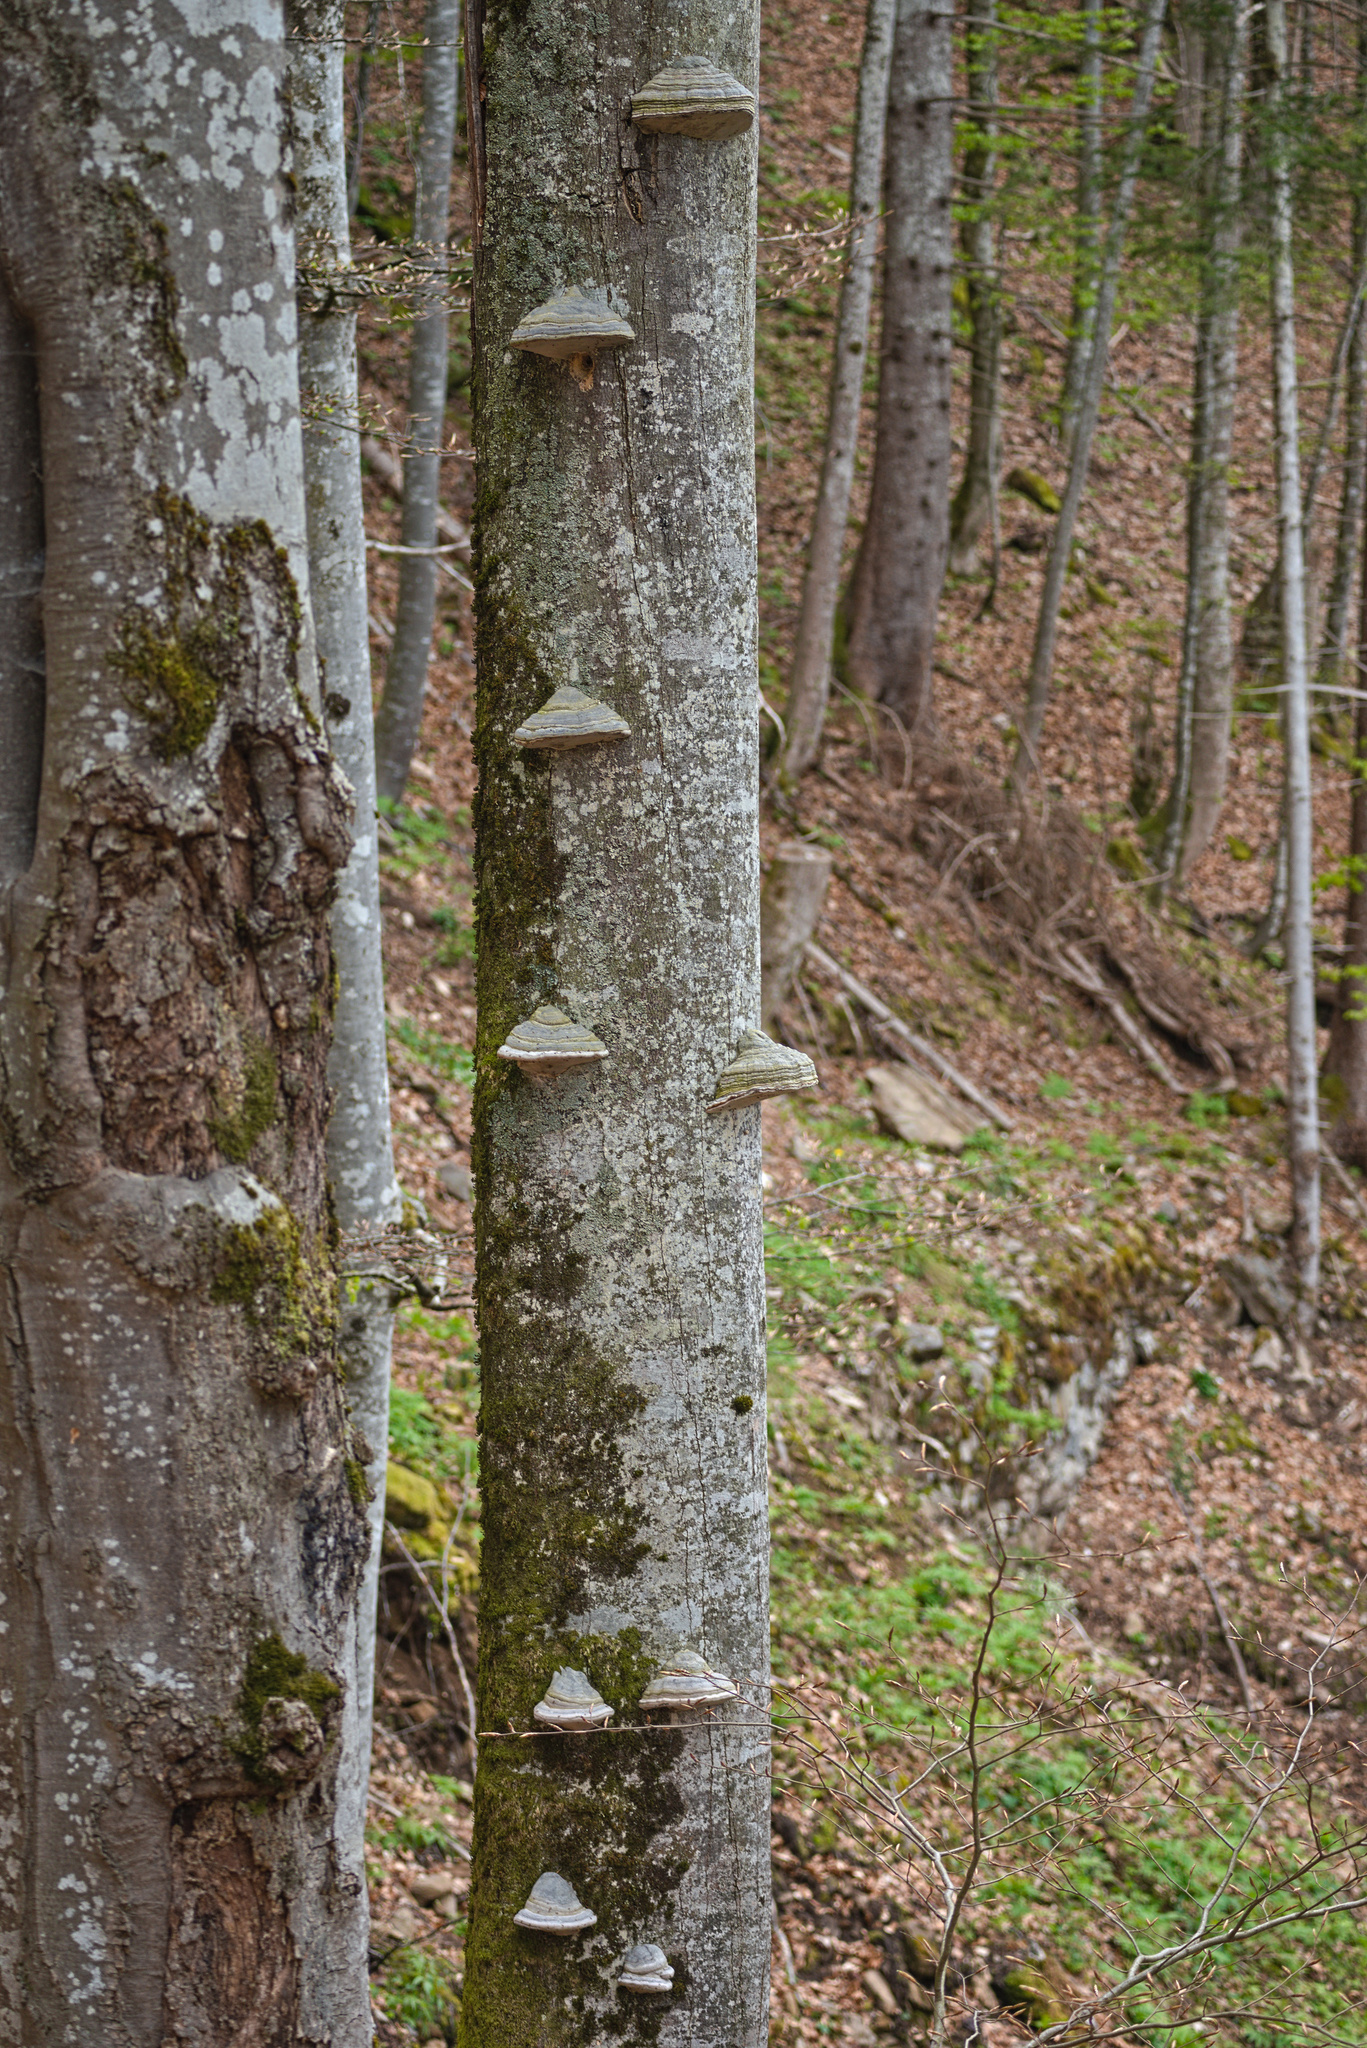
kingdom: Fungi
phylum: Basidiomycota
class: Agaricomycetes
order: Polyporales
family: Polyporaceae
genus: Fomes
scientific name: Fomes fomentarius
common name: Hoof fungus
